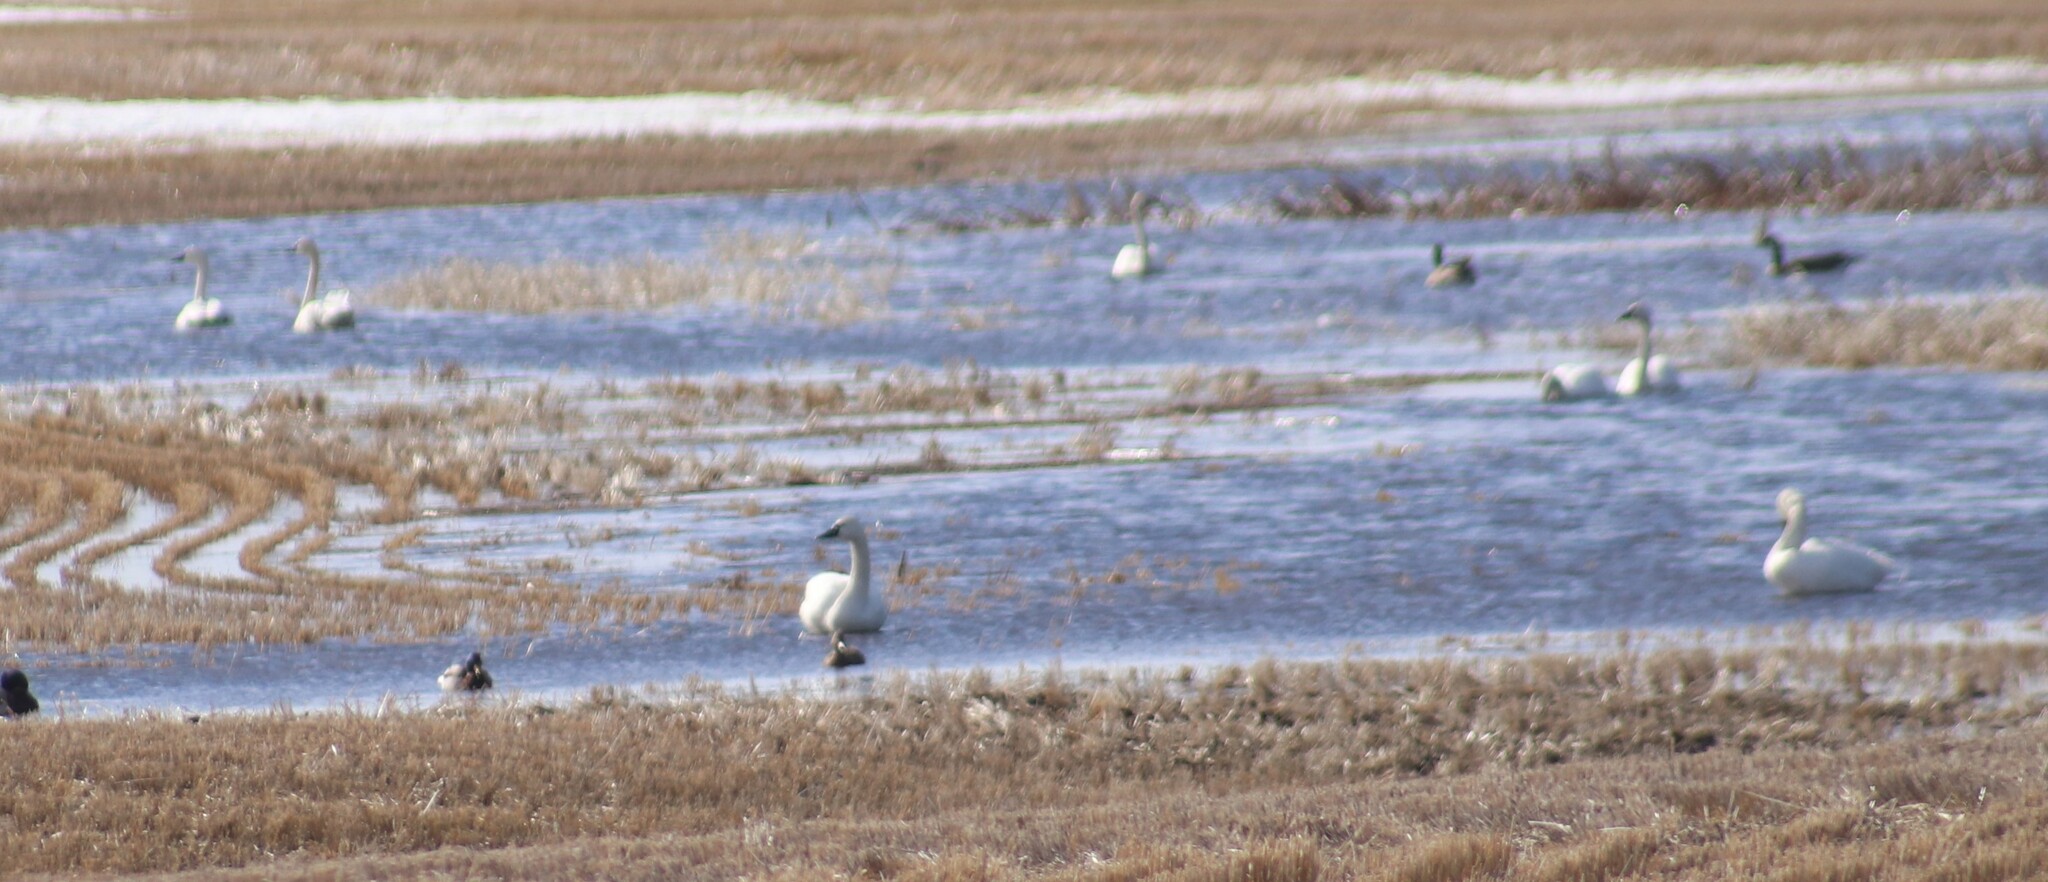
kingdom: Animalia
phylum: Chordata
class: Aves
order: Anseriformes
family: Anatidae
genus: Cygnus
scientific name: Cygnus columbianus
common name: Tundra swan
